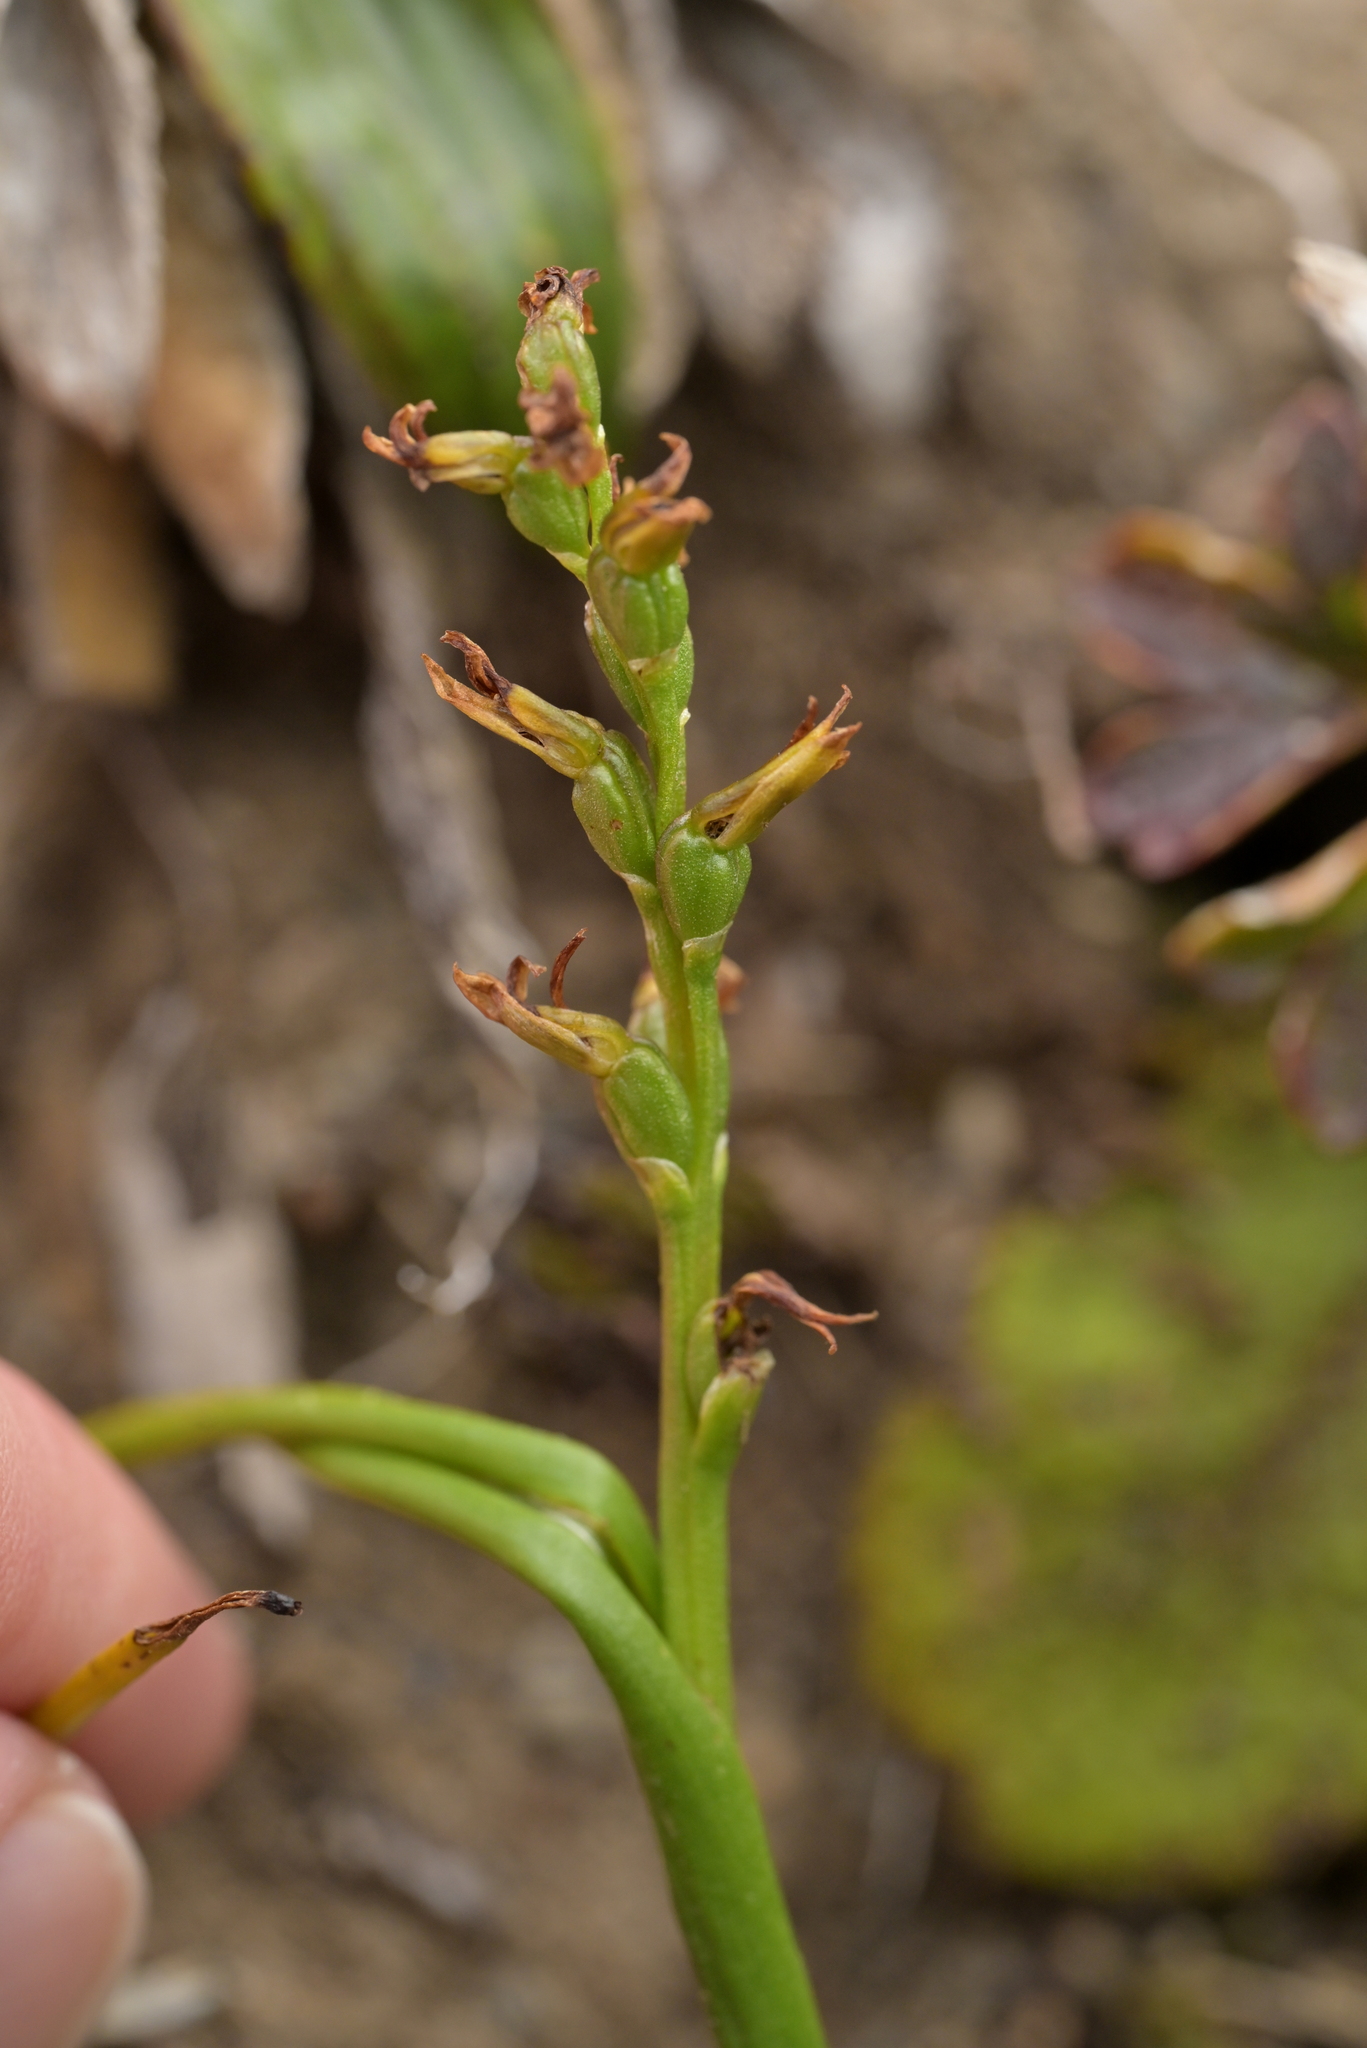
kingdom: Plantae
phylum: Tracheophyta
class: Liliopsida
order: Asparagales
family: Orchidaceae
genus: Prasophyllum
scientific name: Prasophyllum colensoi
